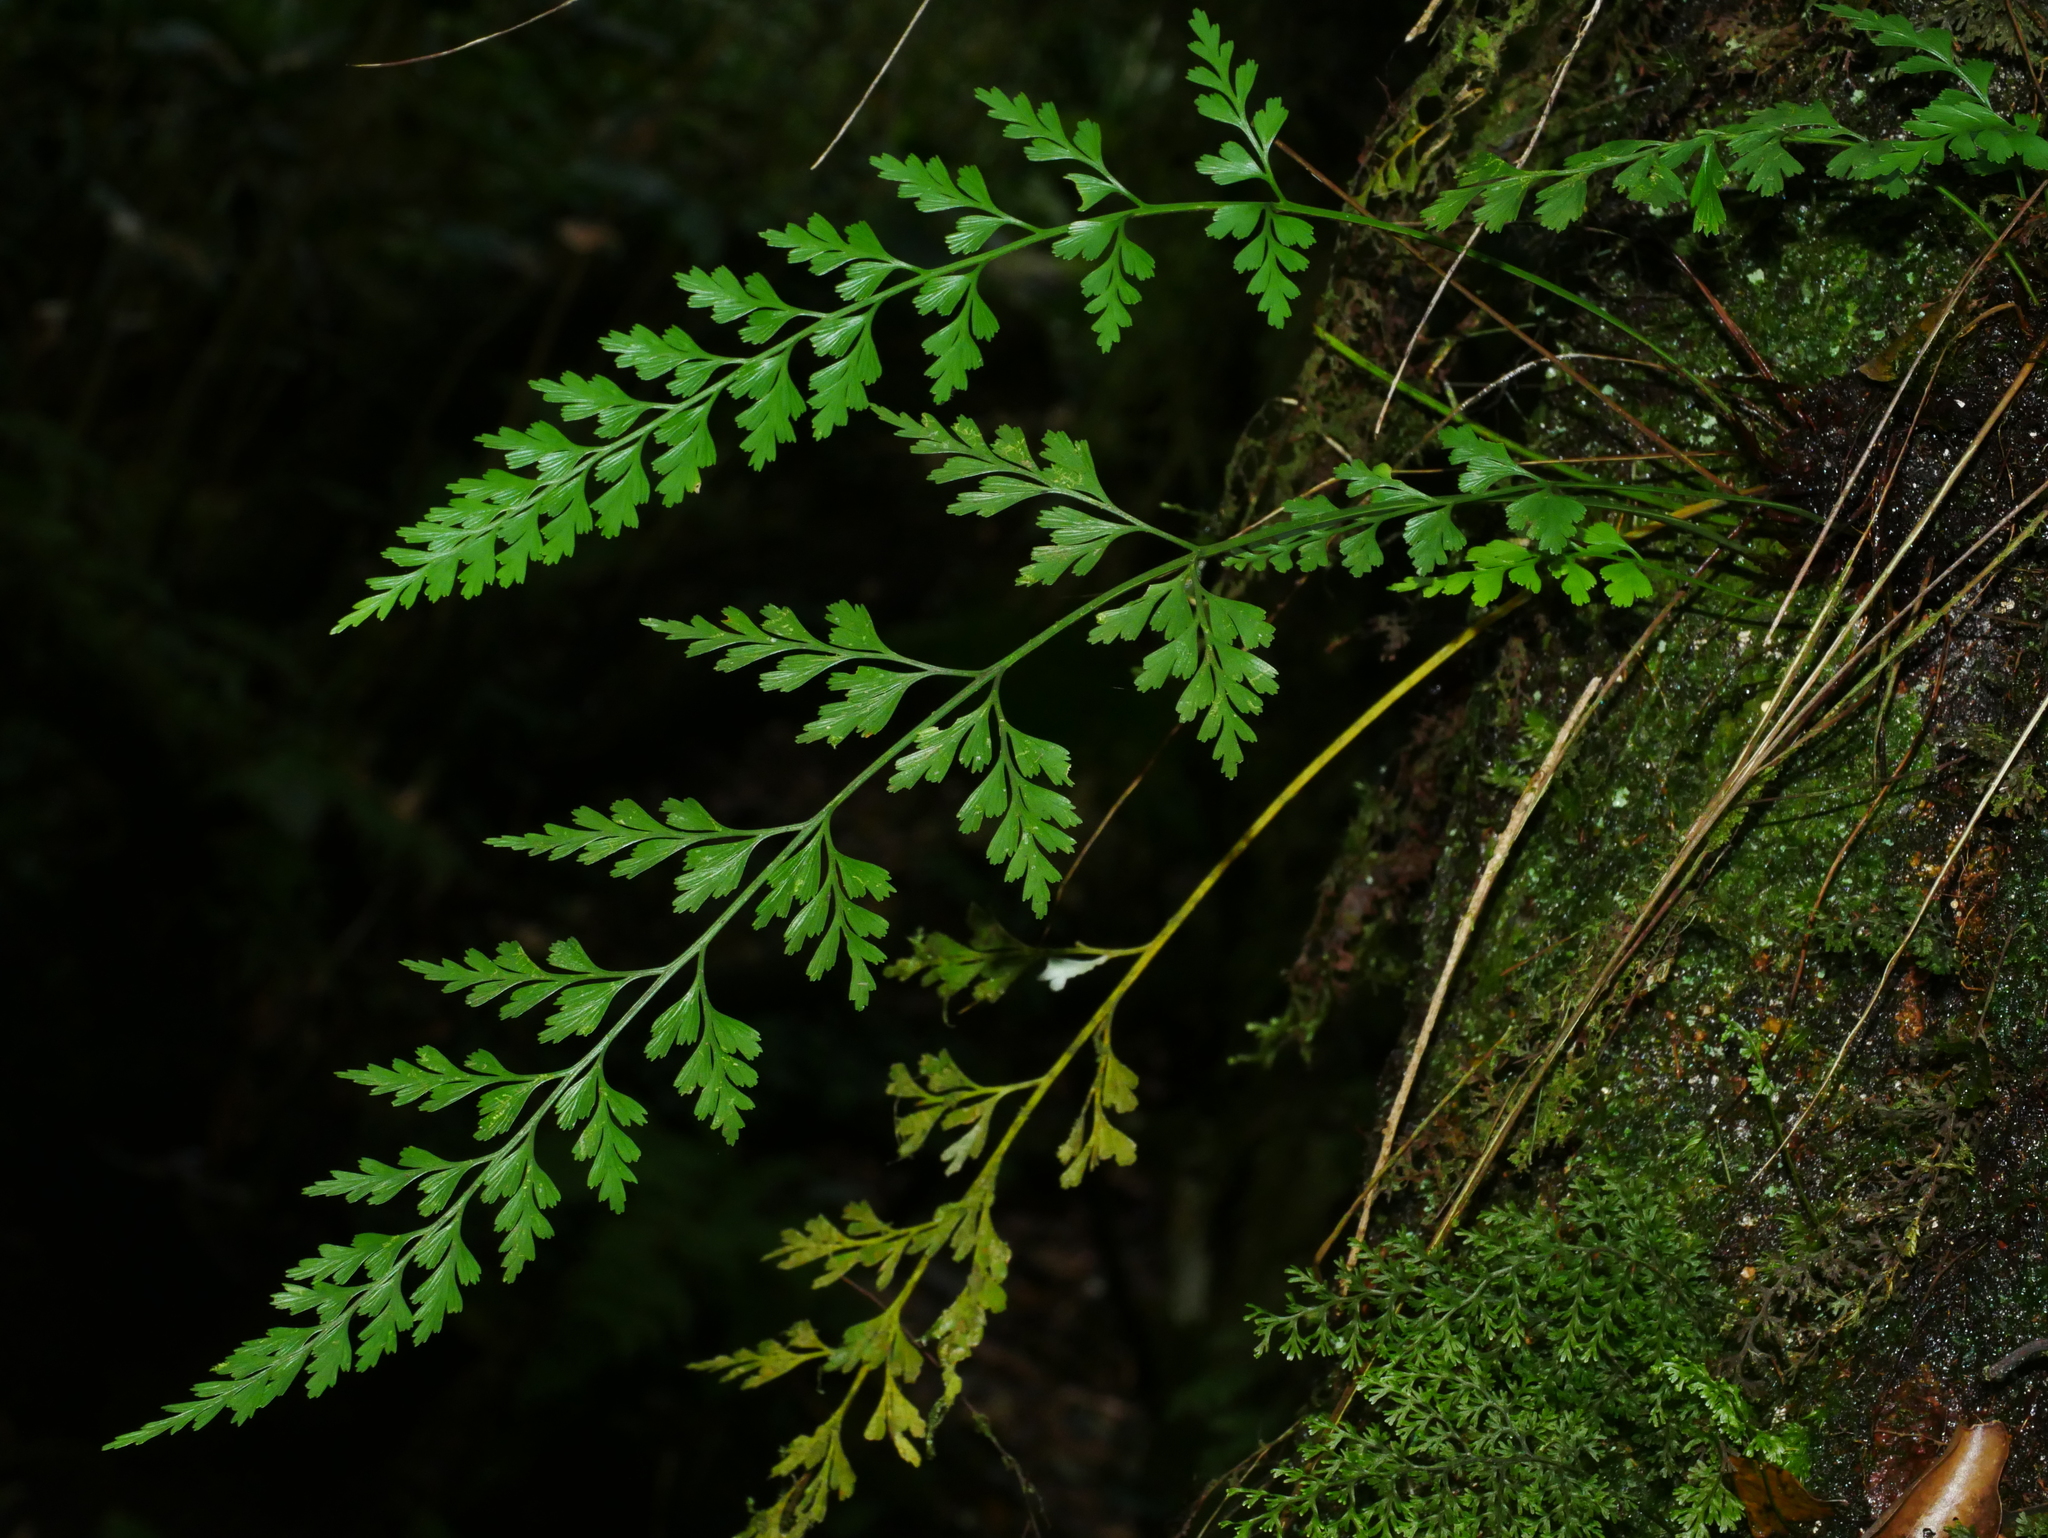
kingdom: Plantae
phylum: Tracheophyta
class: Polypodiopsida
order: Polypodiales
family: Aspleniaceae
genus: Asplenium
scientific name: Asplenium wilfordii
